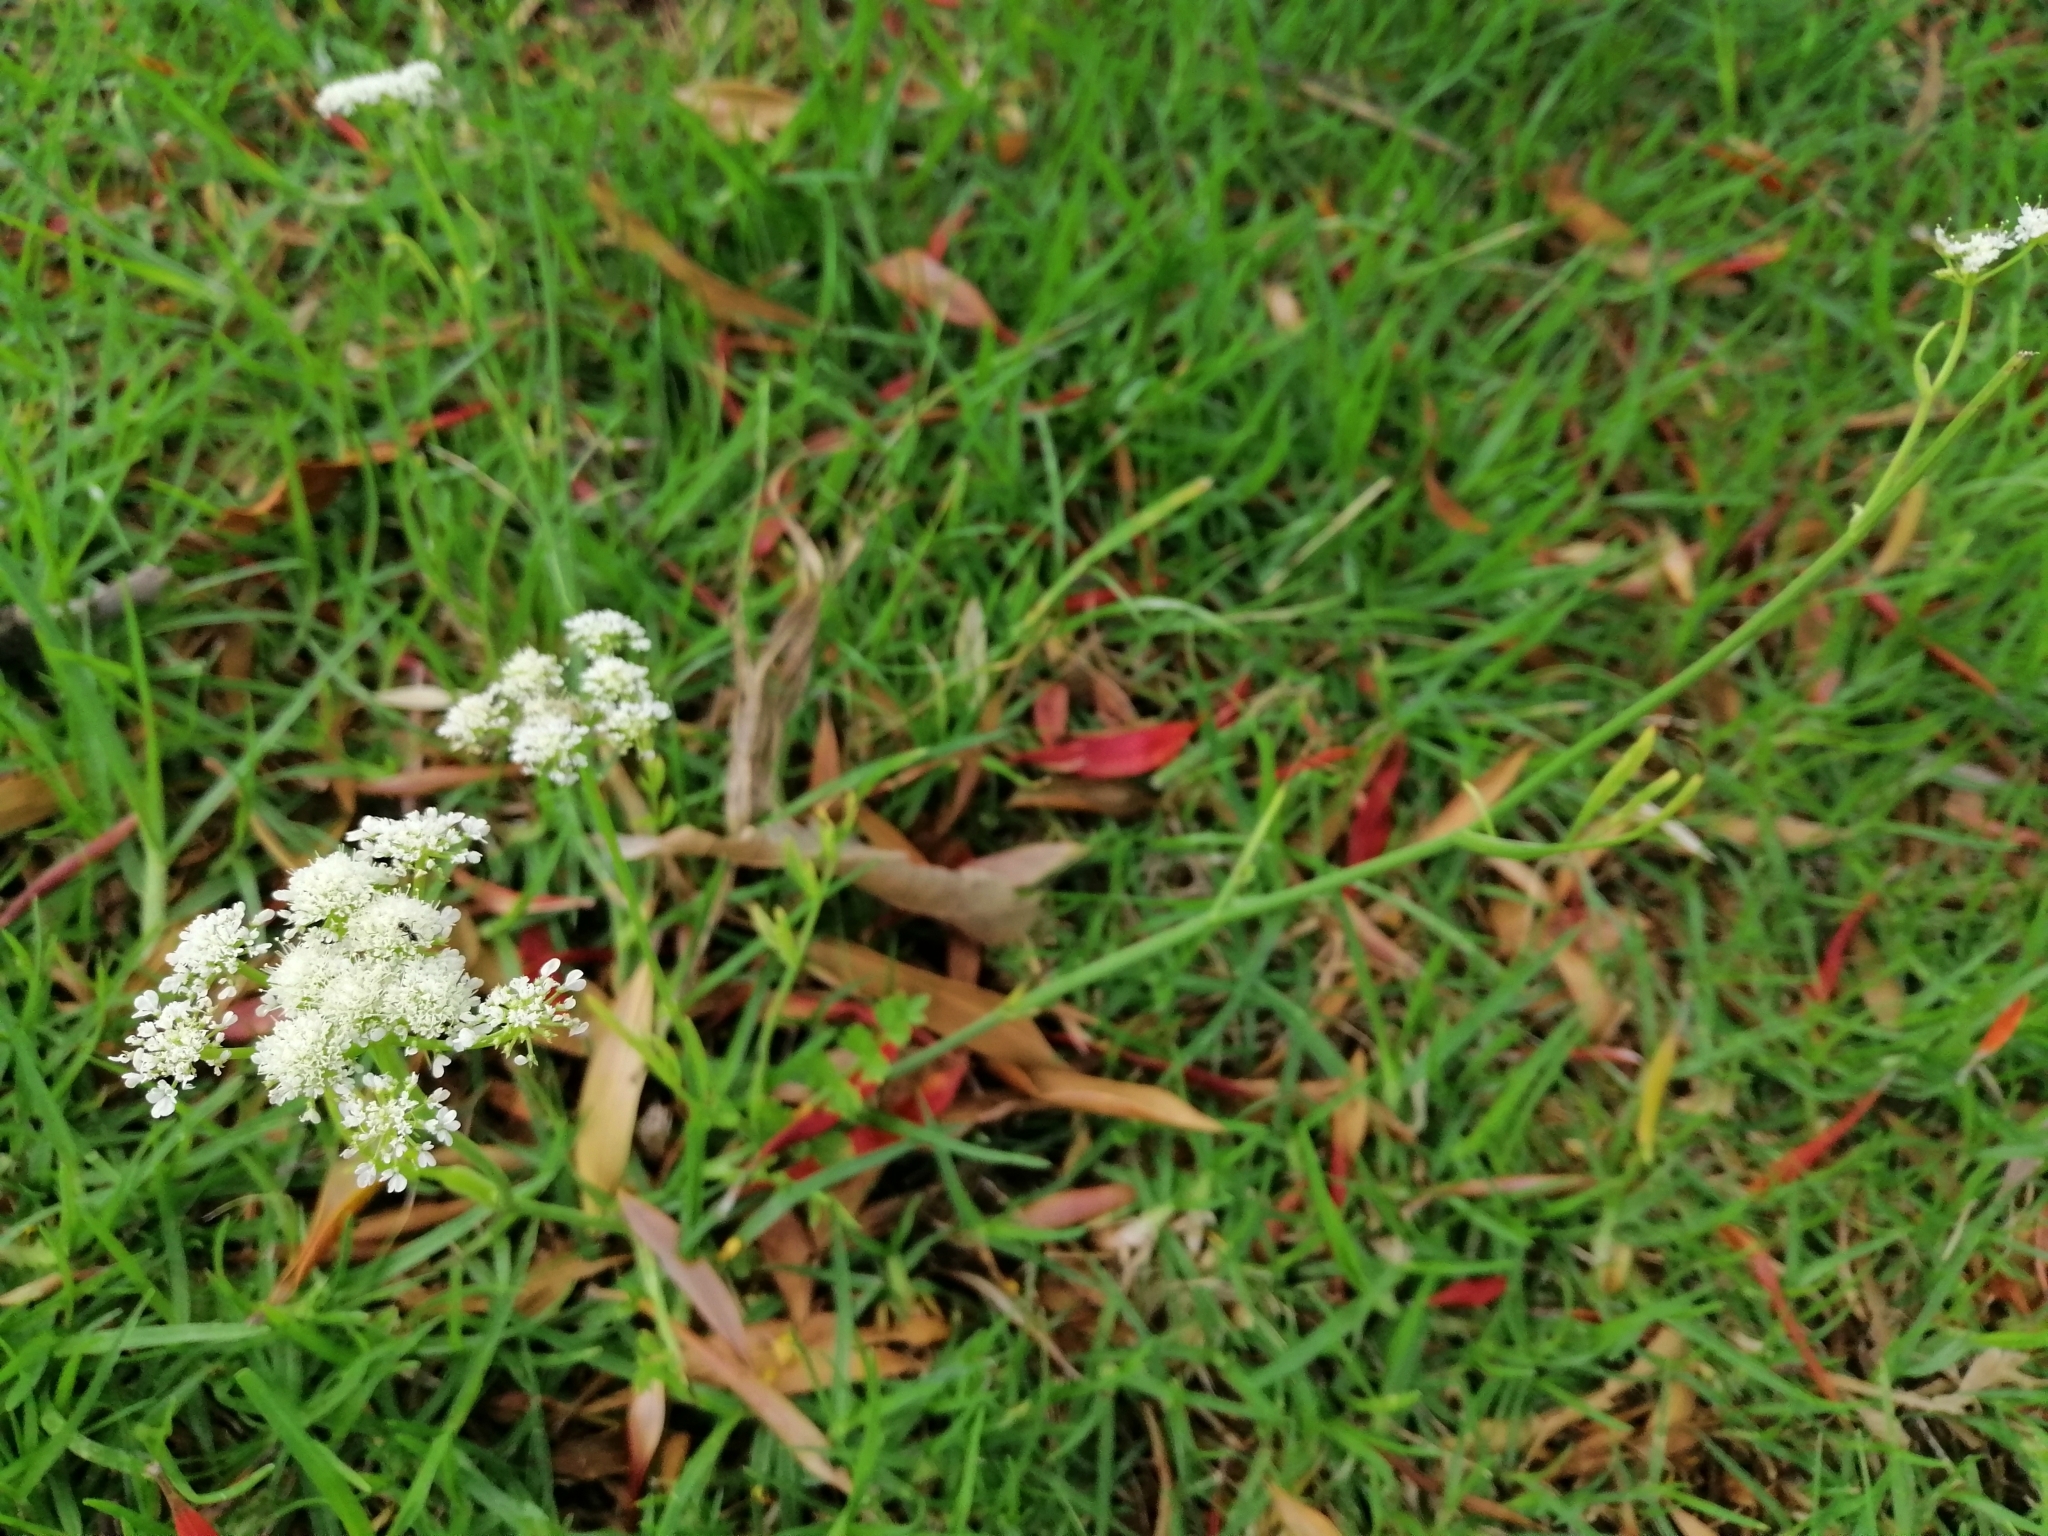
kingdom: Plantae
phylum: Tracheophyta
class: Magnoliopsida
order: Apiales
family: Apiaceae
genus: Daucus
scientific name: Daucus carota
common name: Wild carrot
